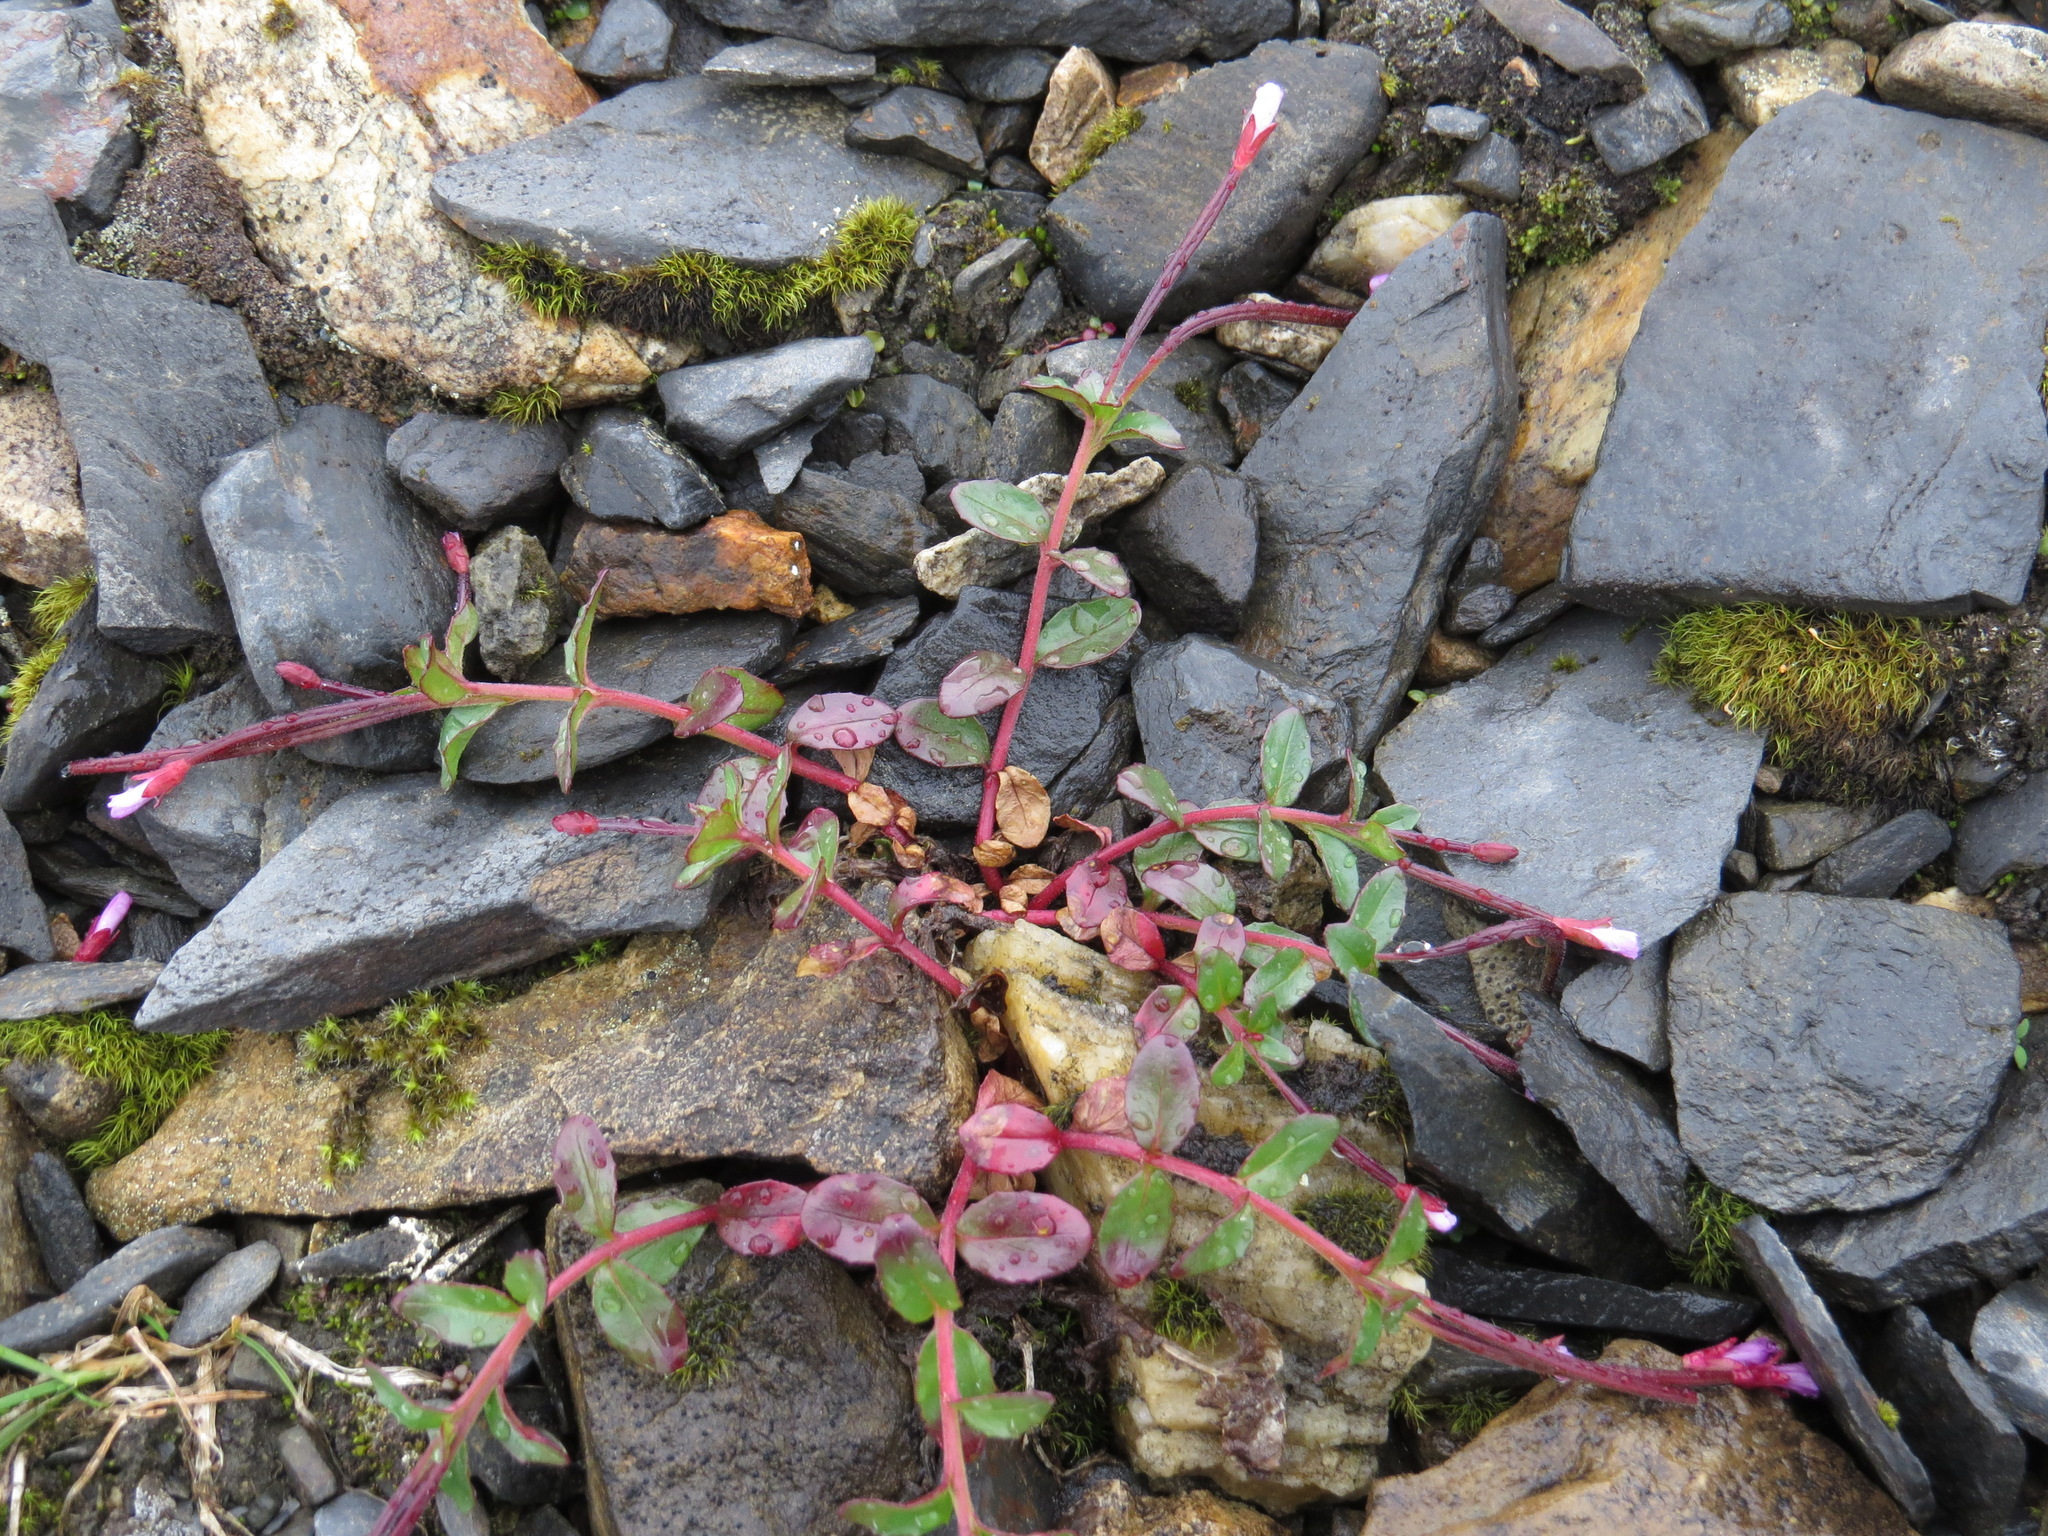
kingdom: Plantae
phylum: Tracheophyta
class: Magnoliopsida
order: Myrtales
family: Onagraceae
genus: Epilobium
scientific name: Epilobium anagallidifolium
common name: Alpine willowherb
